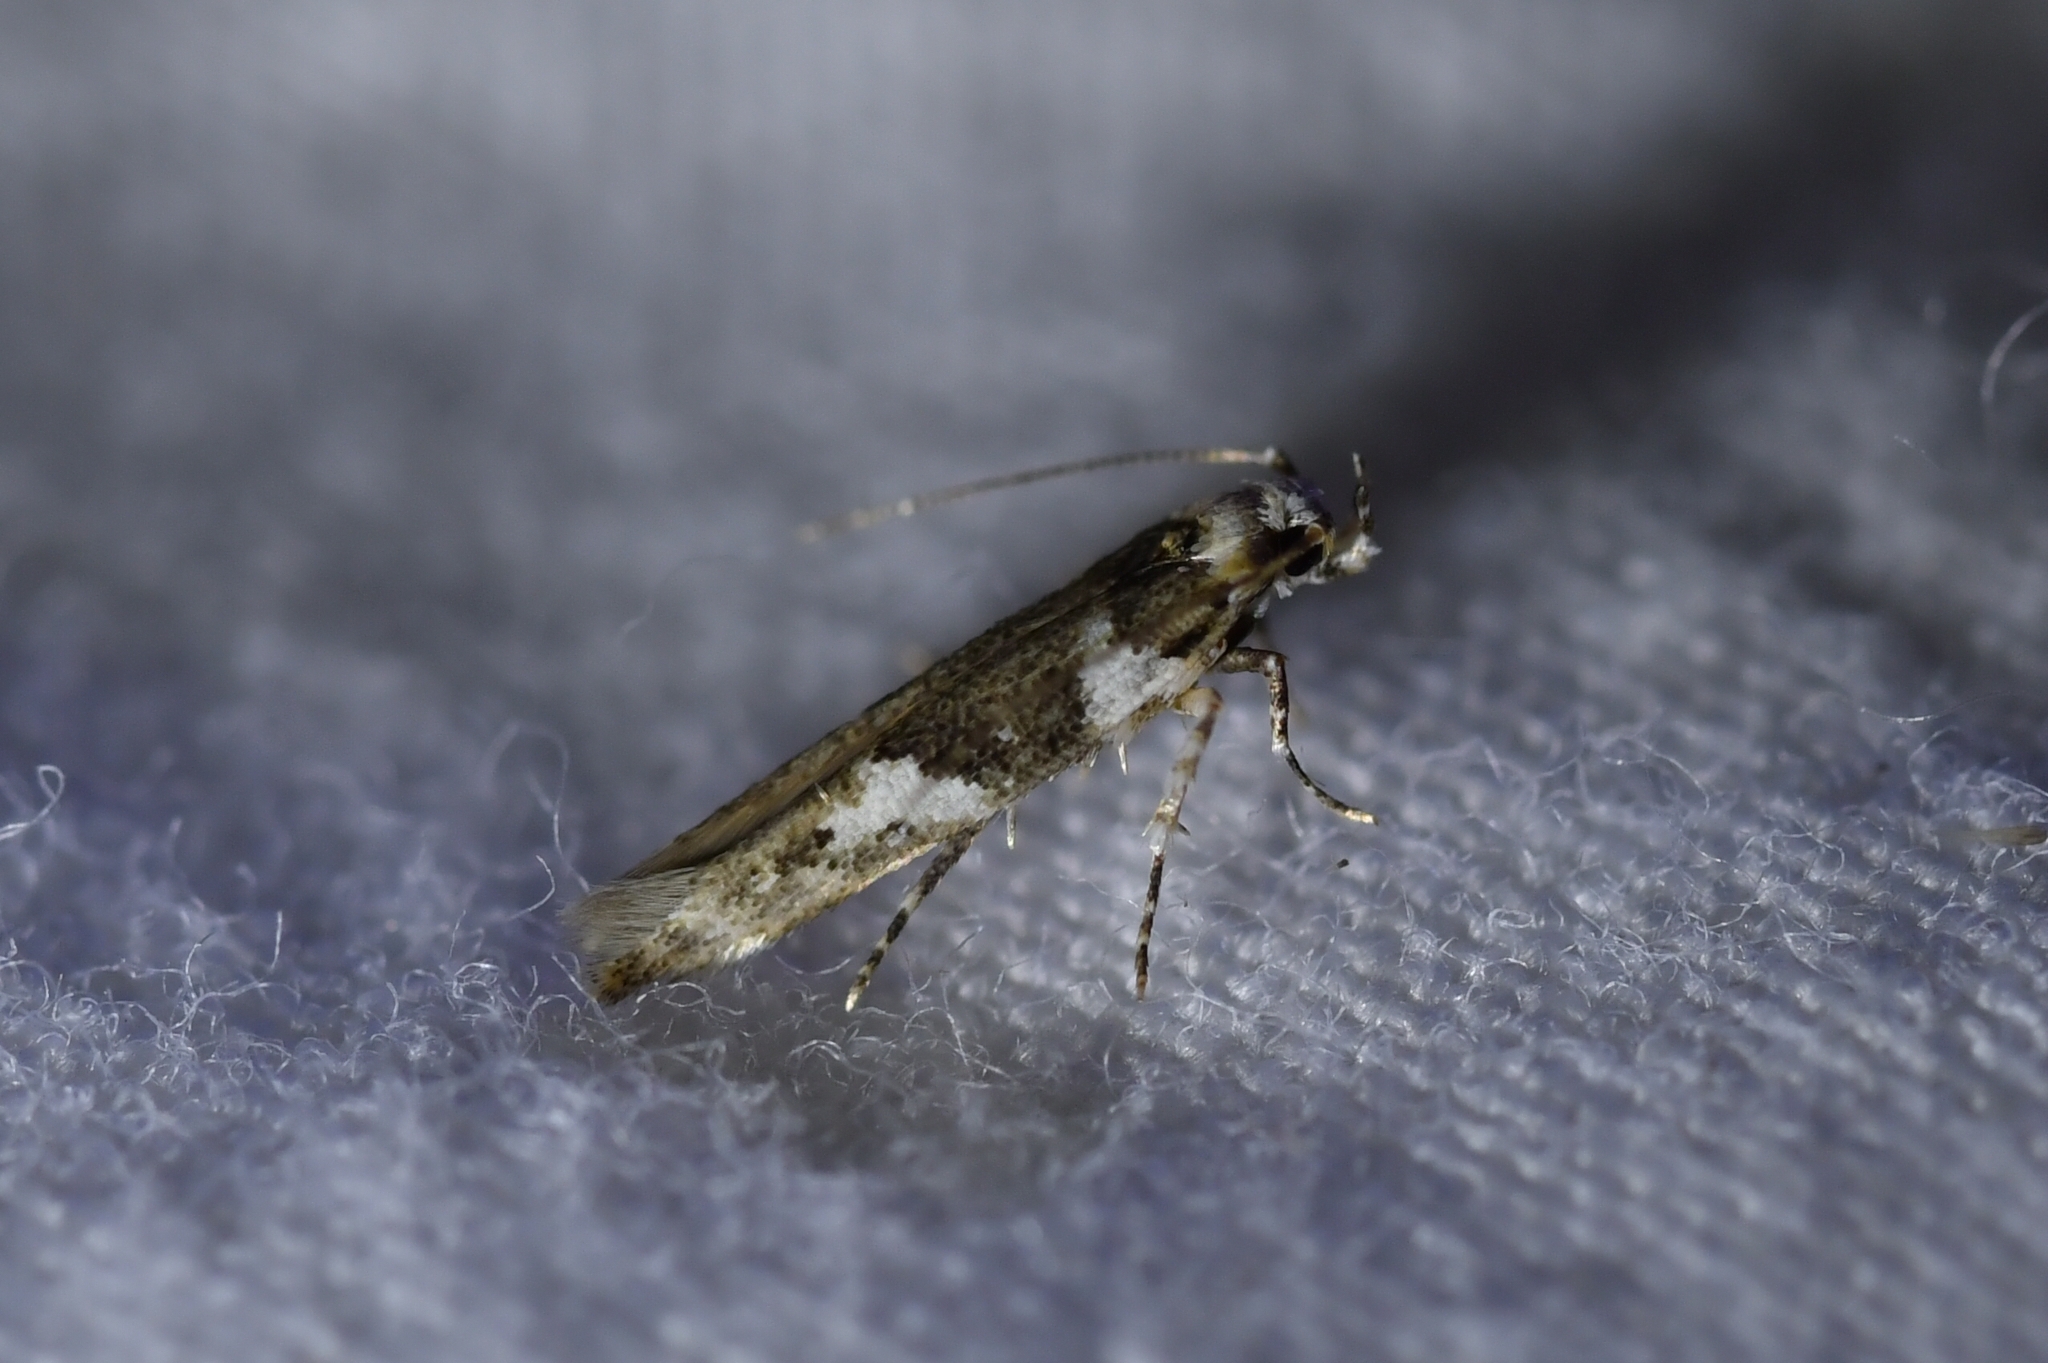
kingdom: Animalia
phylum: Arthropoda
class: Insecta
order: Lepidoptera
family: Cosmopterigidae
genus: Pyroderces
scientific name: Pyroderces deamatella
